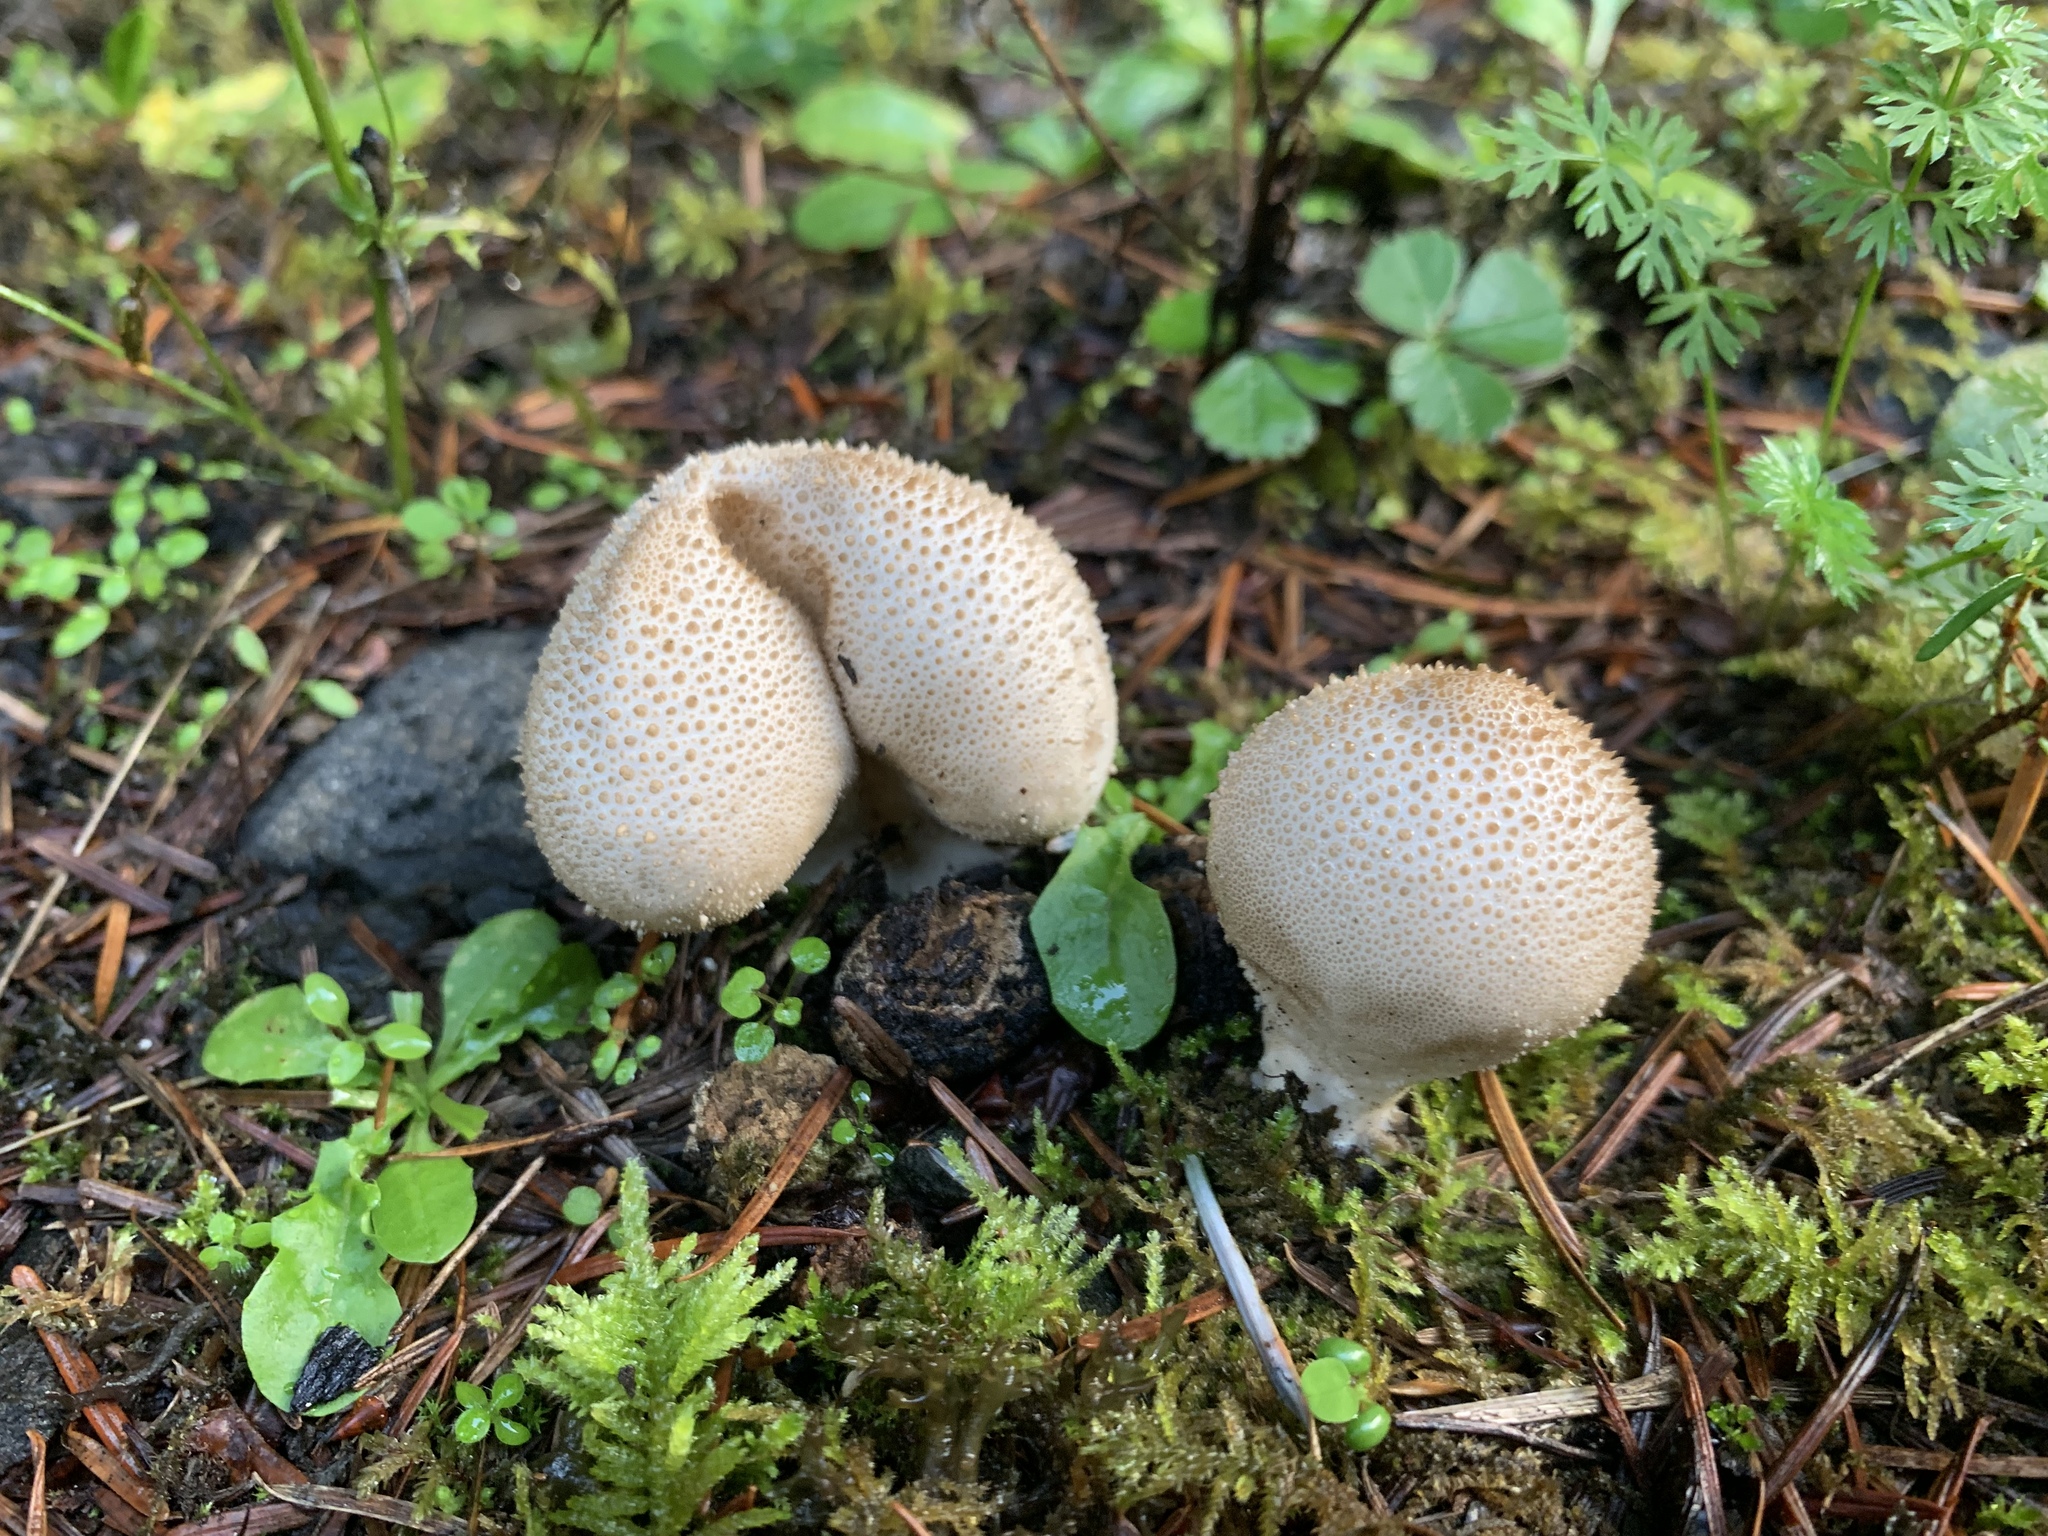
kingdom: Fungi
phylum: Basidiomycota
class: Agaricomycetes
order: Agaricales
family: Lycoperdaceae
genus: Lycoperdon
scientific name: Lycoperdon perlatum
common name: Common puffball
